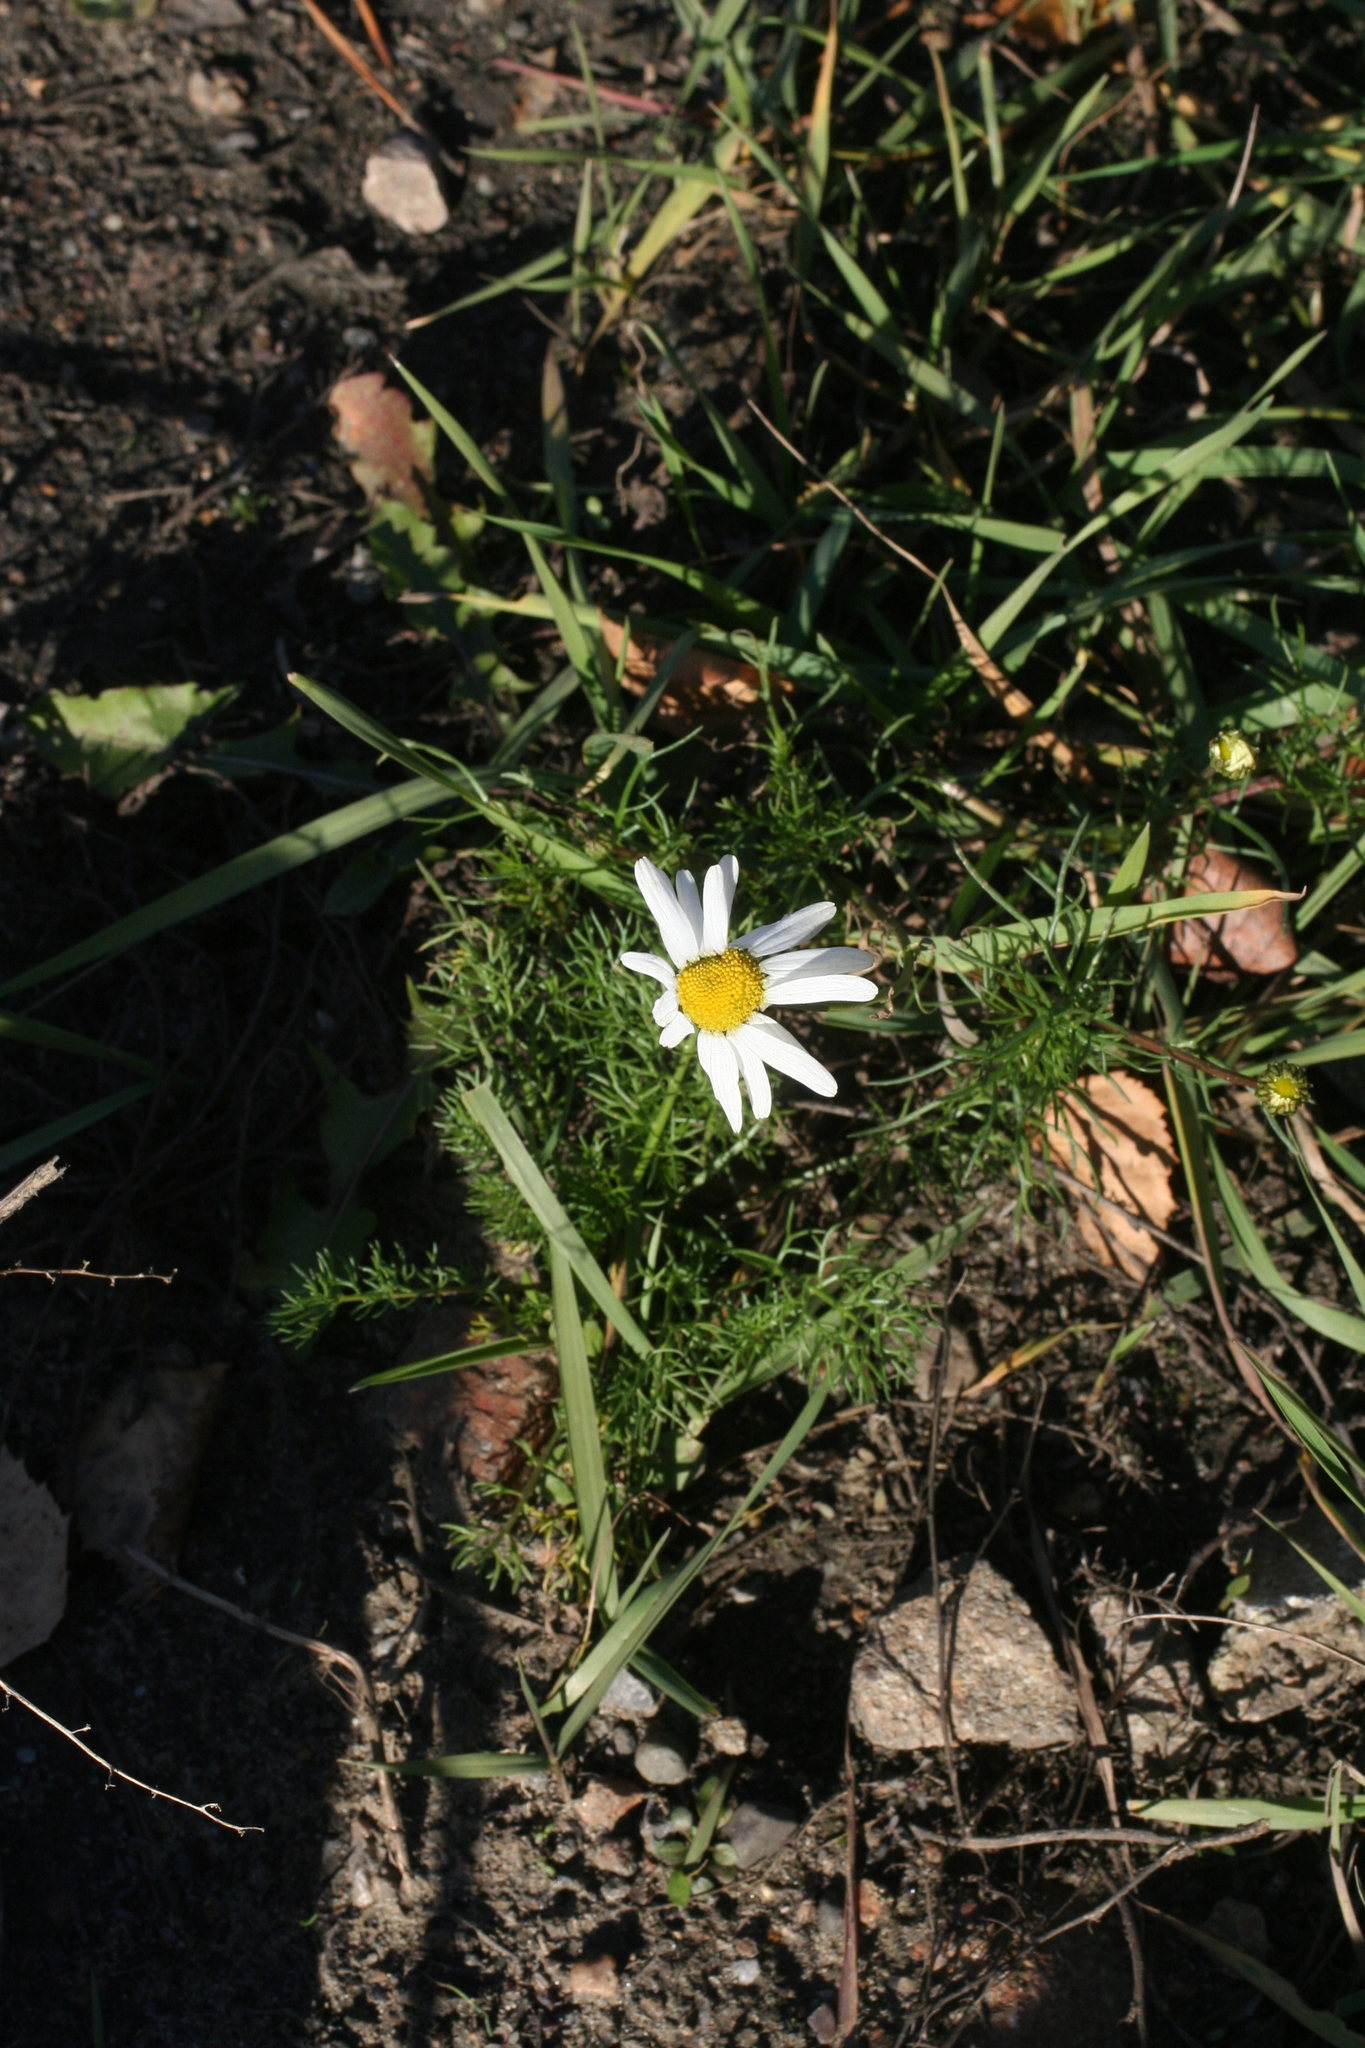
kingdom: Plantae
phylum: Tracheophyta
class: Magnoliopsida
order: Asterales
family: Asteraceae
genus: Tripleurospermum
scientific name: Tripleurospermum inodorum
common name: Scentless mayweed
